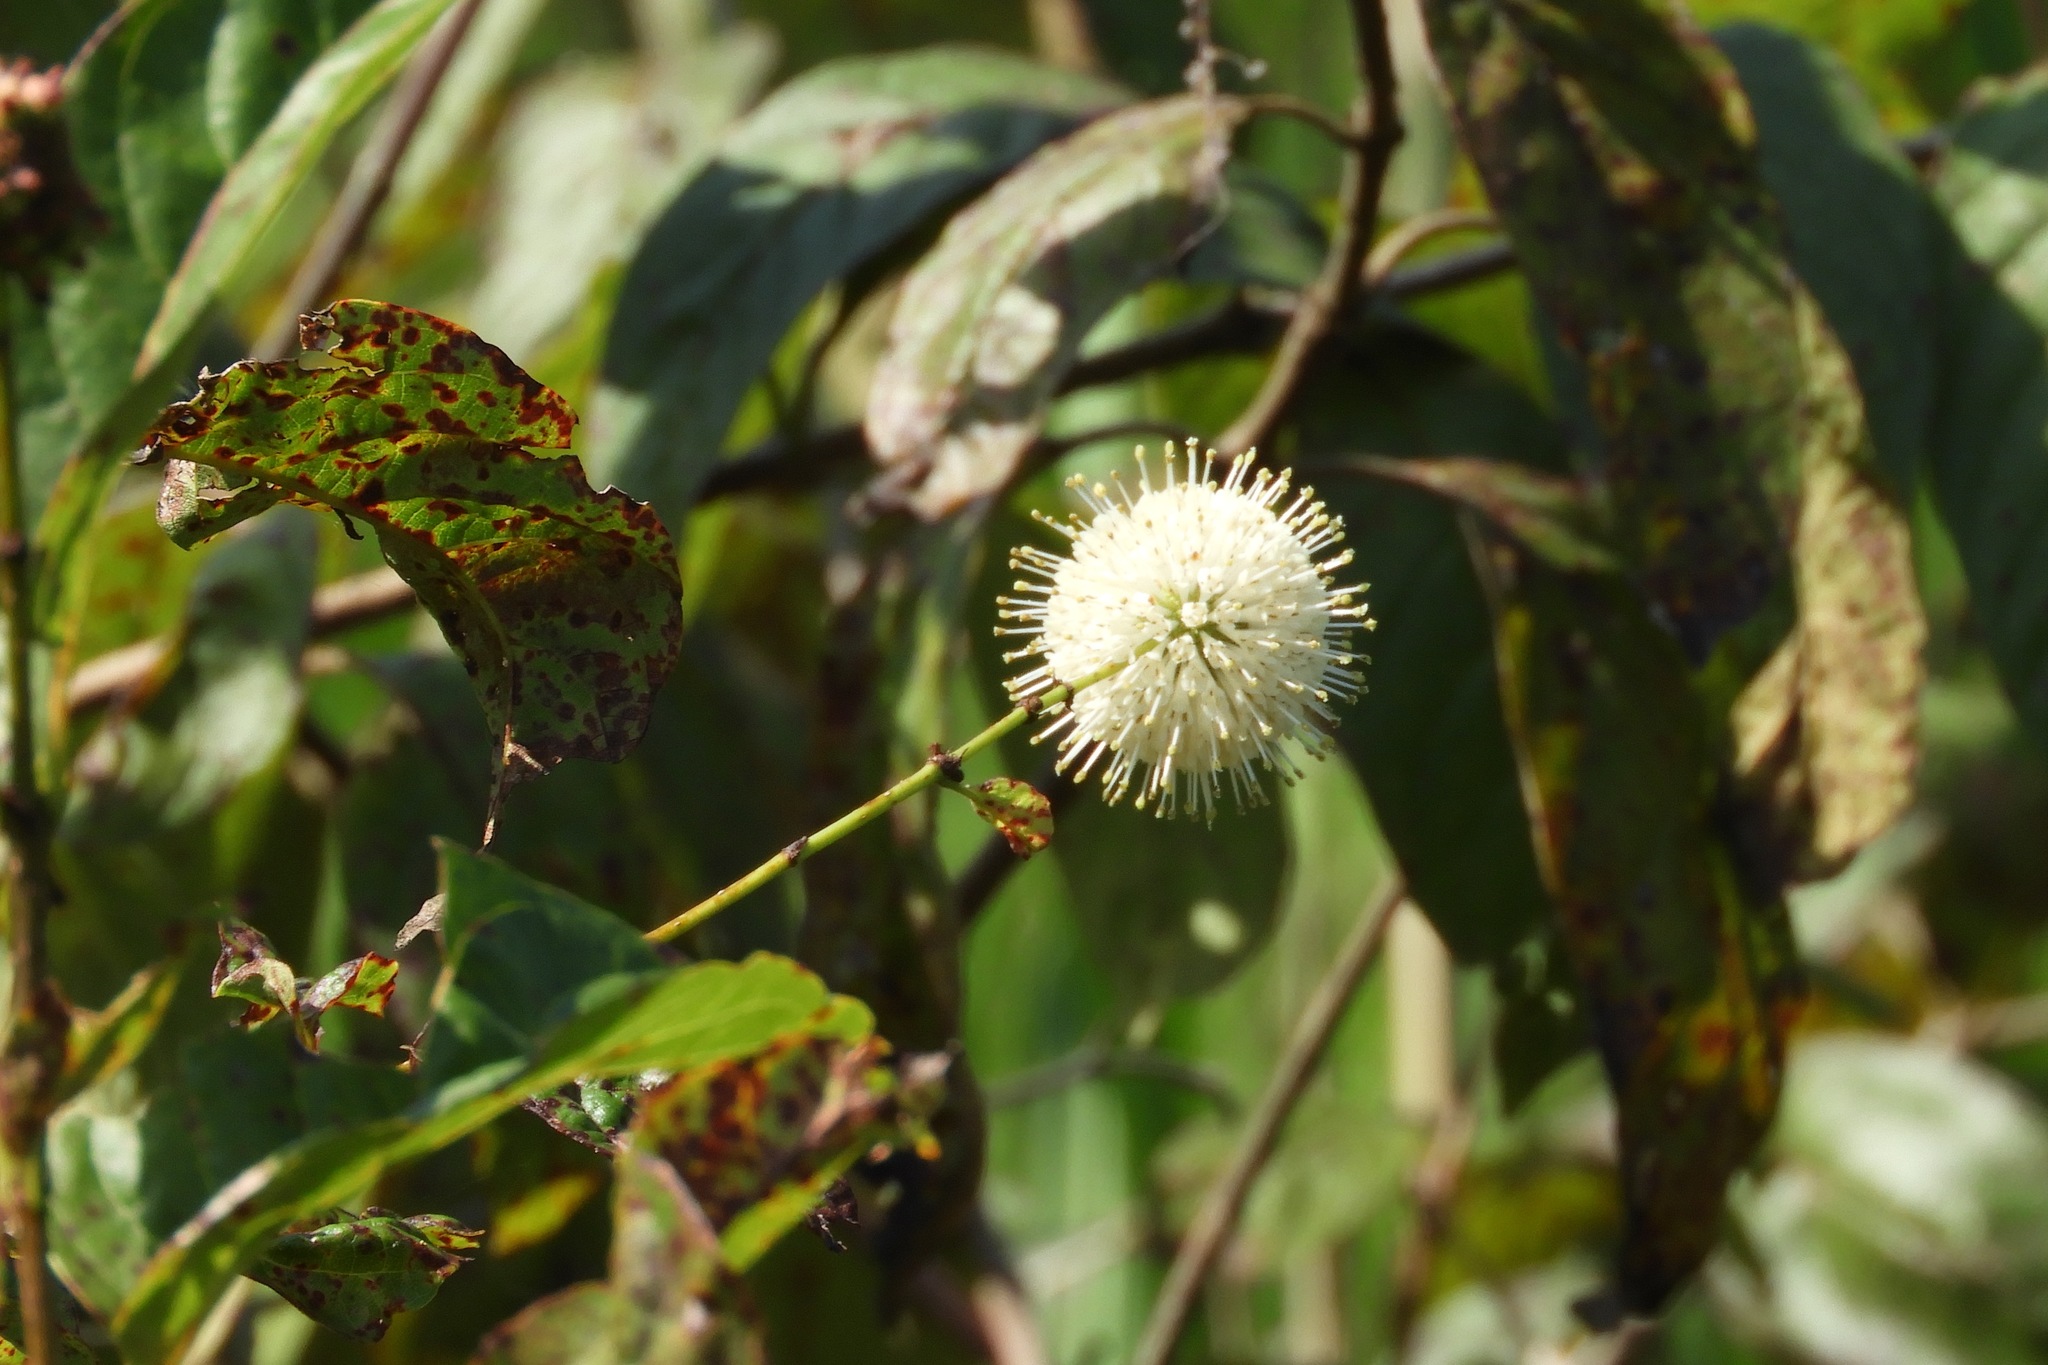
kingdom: Plantae
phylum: Tracheophyta
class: Magnoliopsida
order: Gentianales
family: Rubiaceae
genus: Cephalanthus
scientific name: Cephalanthus occidentalis
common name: Button-willow
